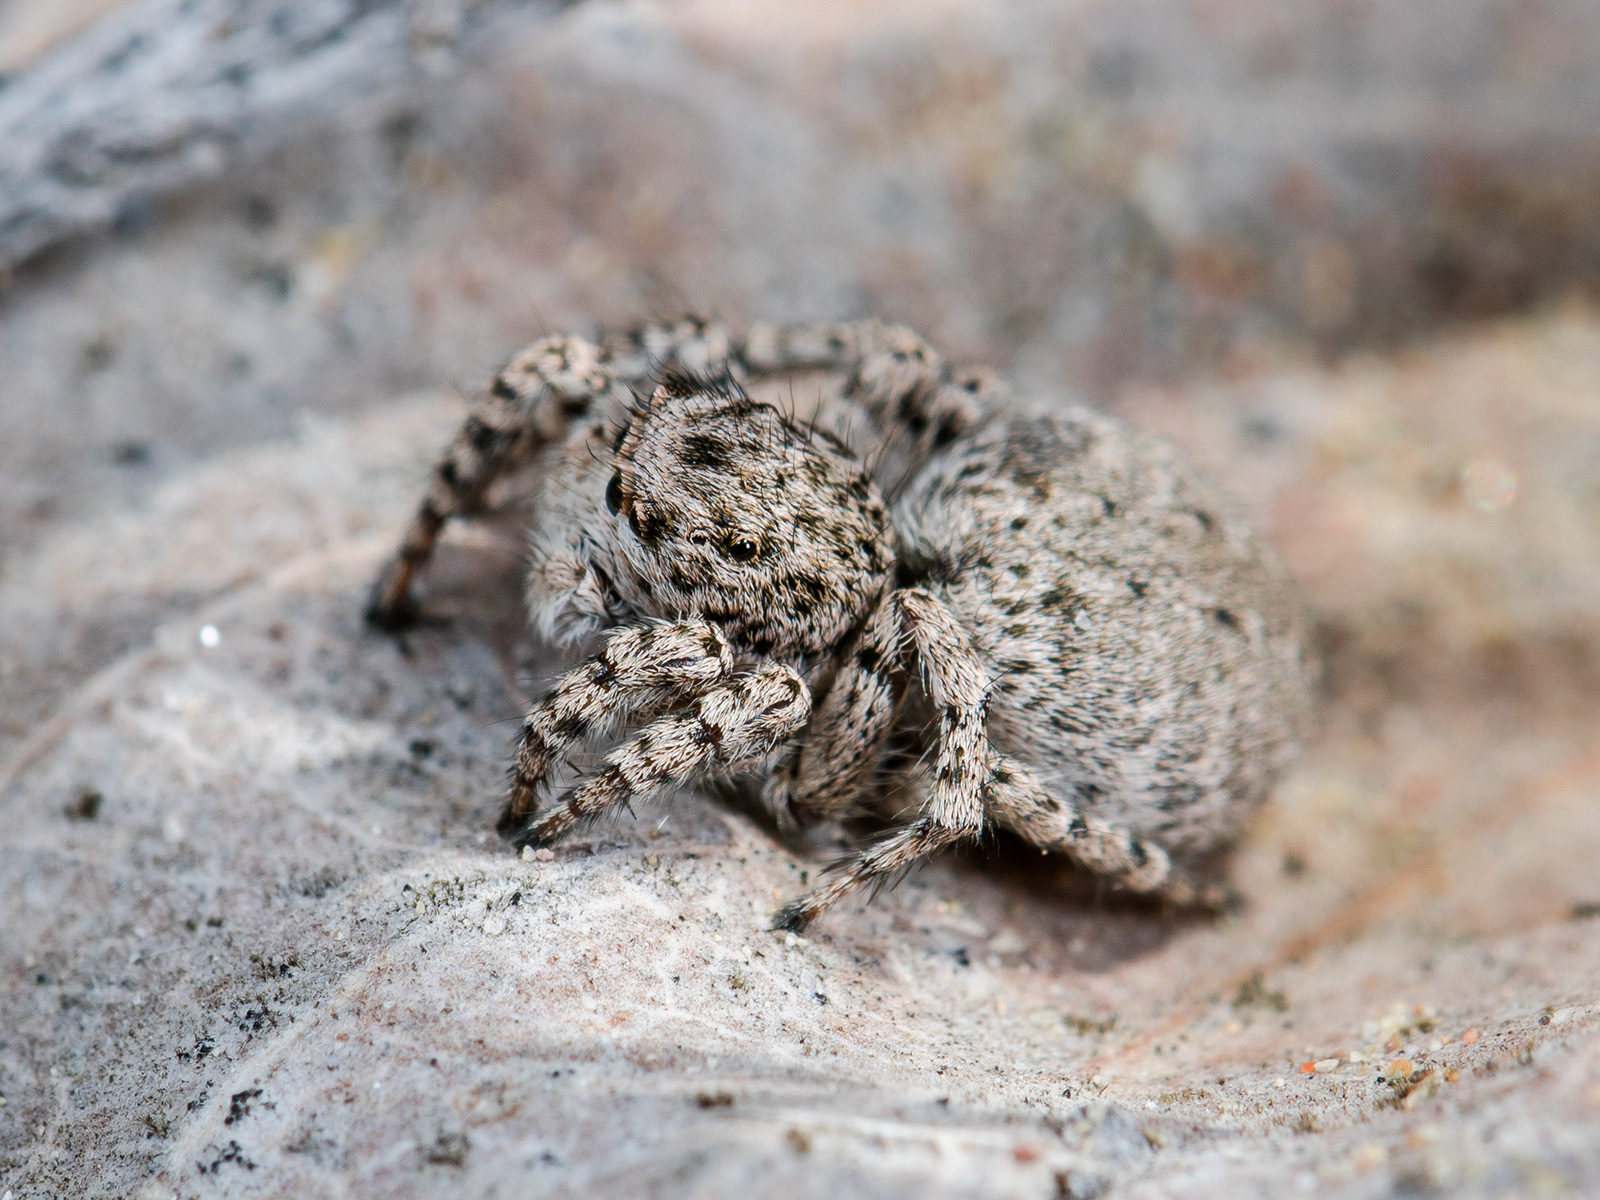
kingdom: Animalia
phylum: Arthropoda
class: Arachnida
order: Araneae
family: Salticidae
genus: Aelurillus
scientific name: Aelurillus nenilini
